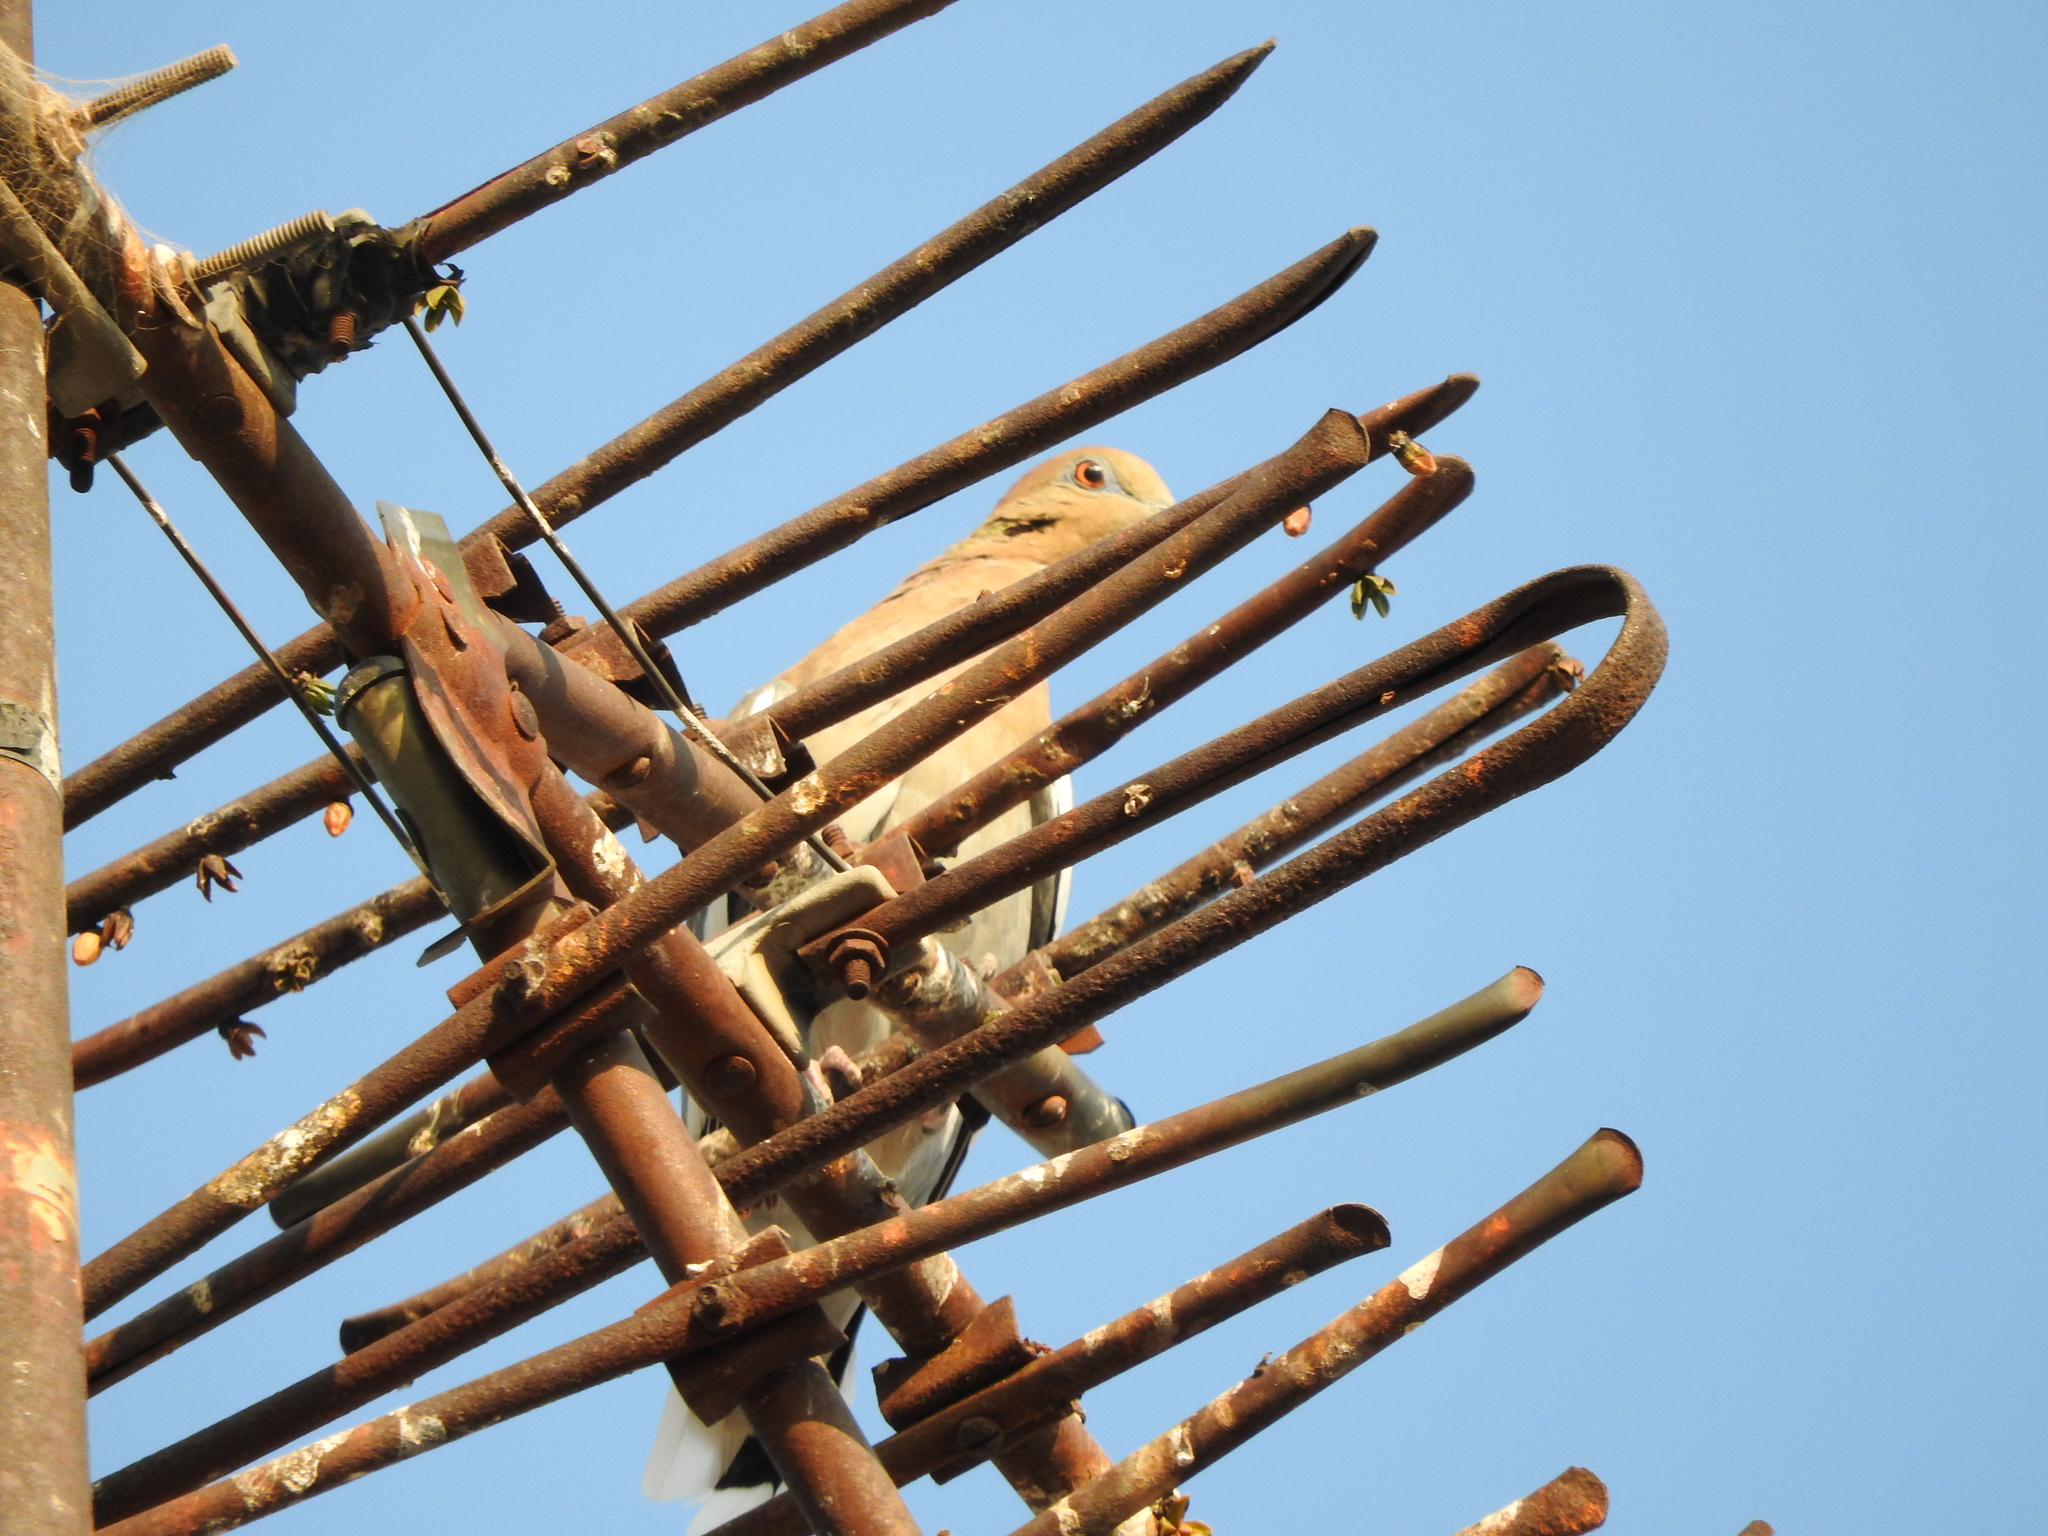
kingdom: Animalia
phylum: Chordata
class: Aves
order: Columbiformes
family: Columbidae
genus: Zenaida
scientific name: Zenaida asiatica
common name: White-winged dove
